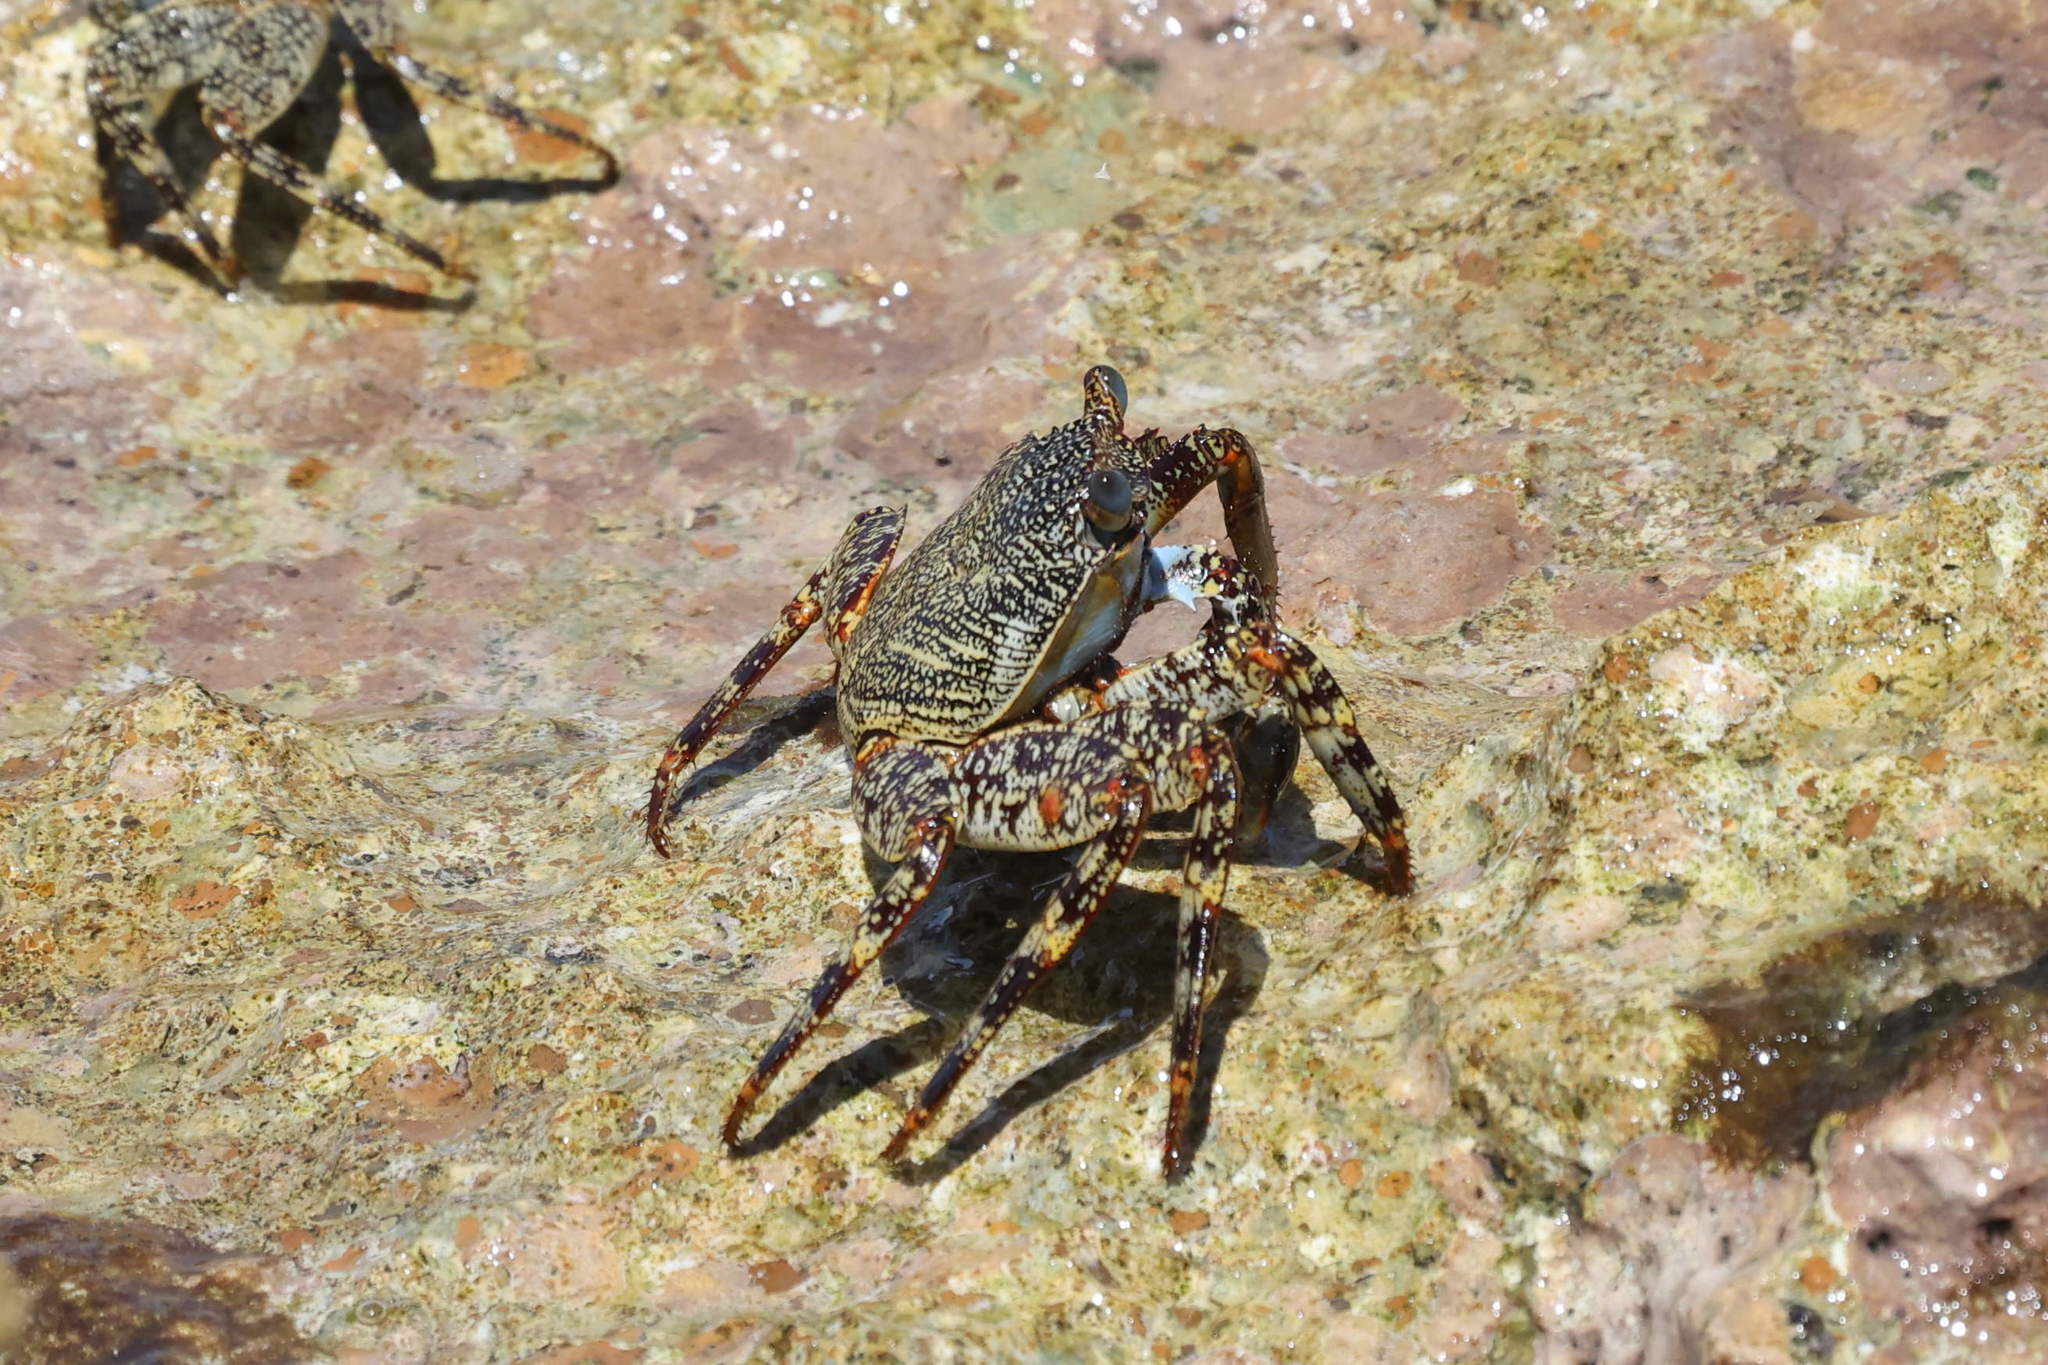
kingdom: Animalia
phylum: Arthropoda
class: Malacostraca
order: Decapoda
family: Grapsidae
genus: Grapsus
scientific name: Grapsus grapsus
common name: Sally lightfoot
